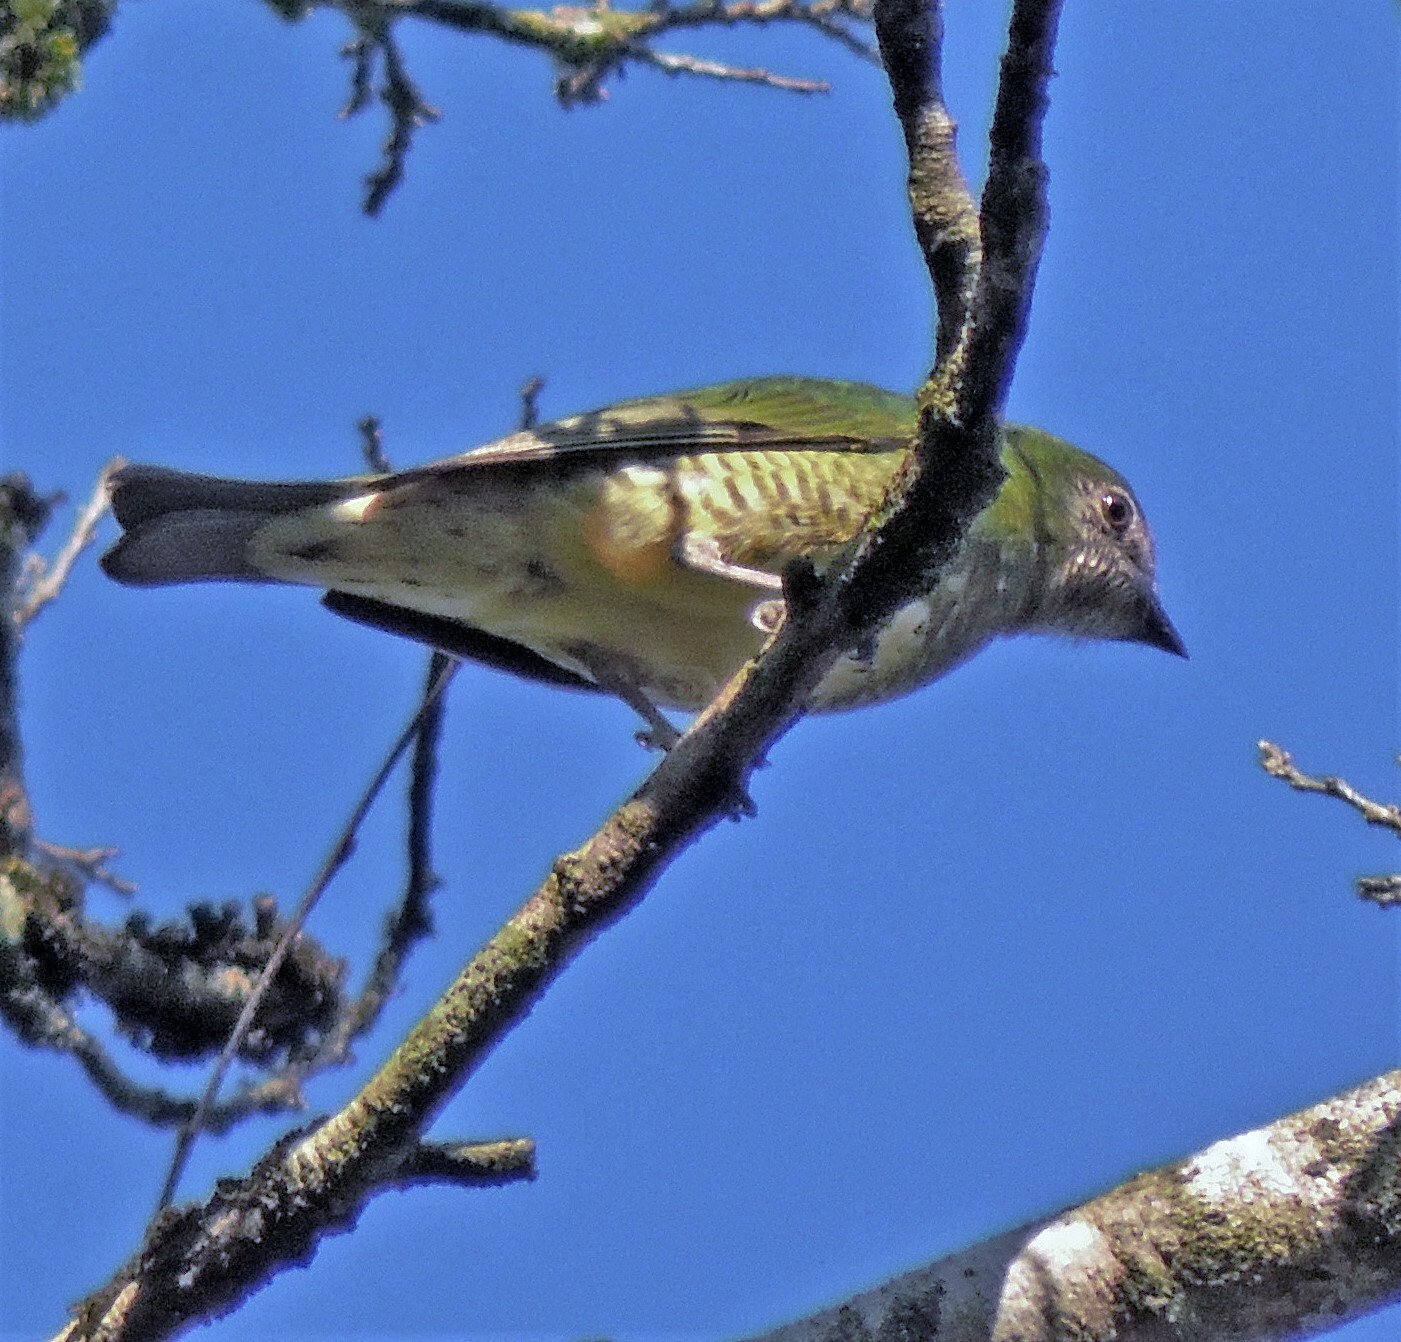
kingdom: Animalia
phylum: Chordata
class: Aves
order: Passeriformes
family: Thraupidae
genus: Tersina
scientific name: Tersina viridis
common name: Swallow tanager
